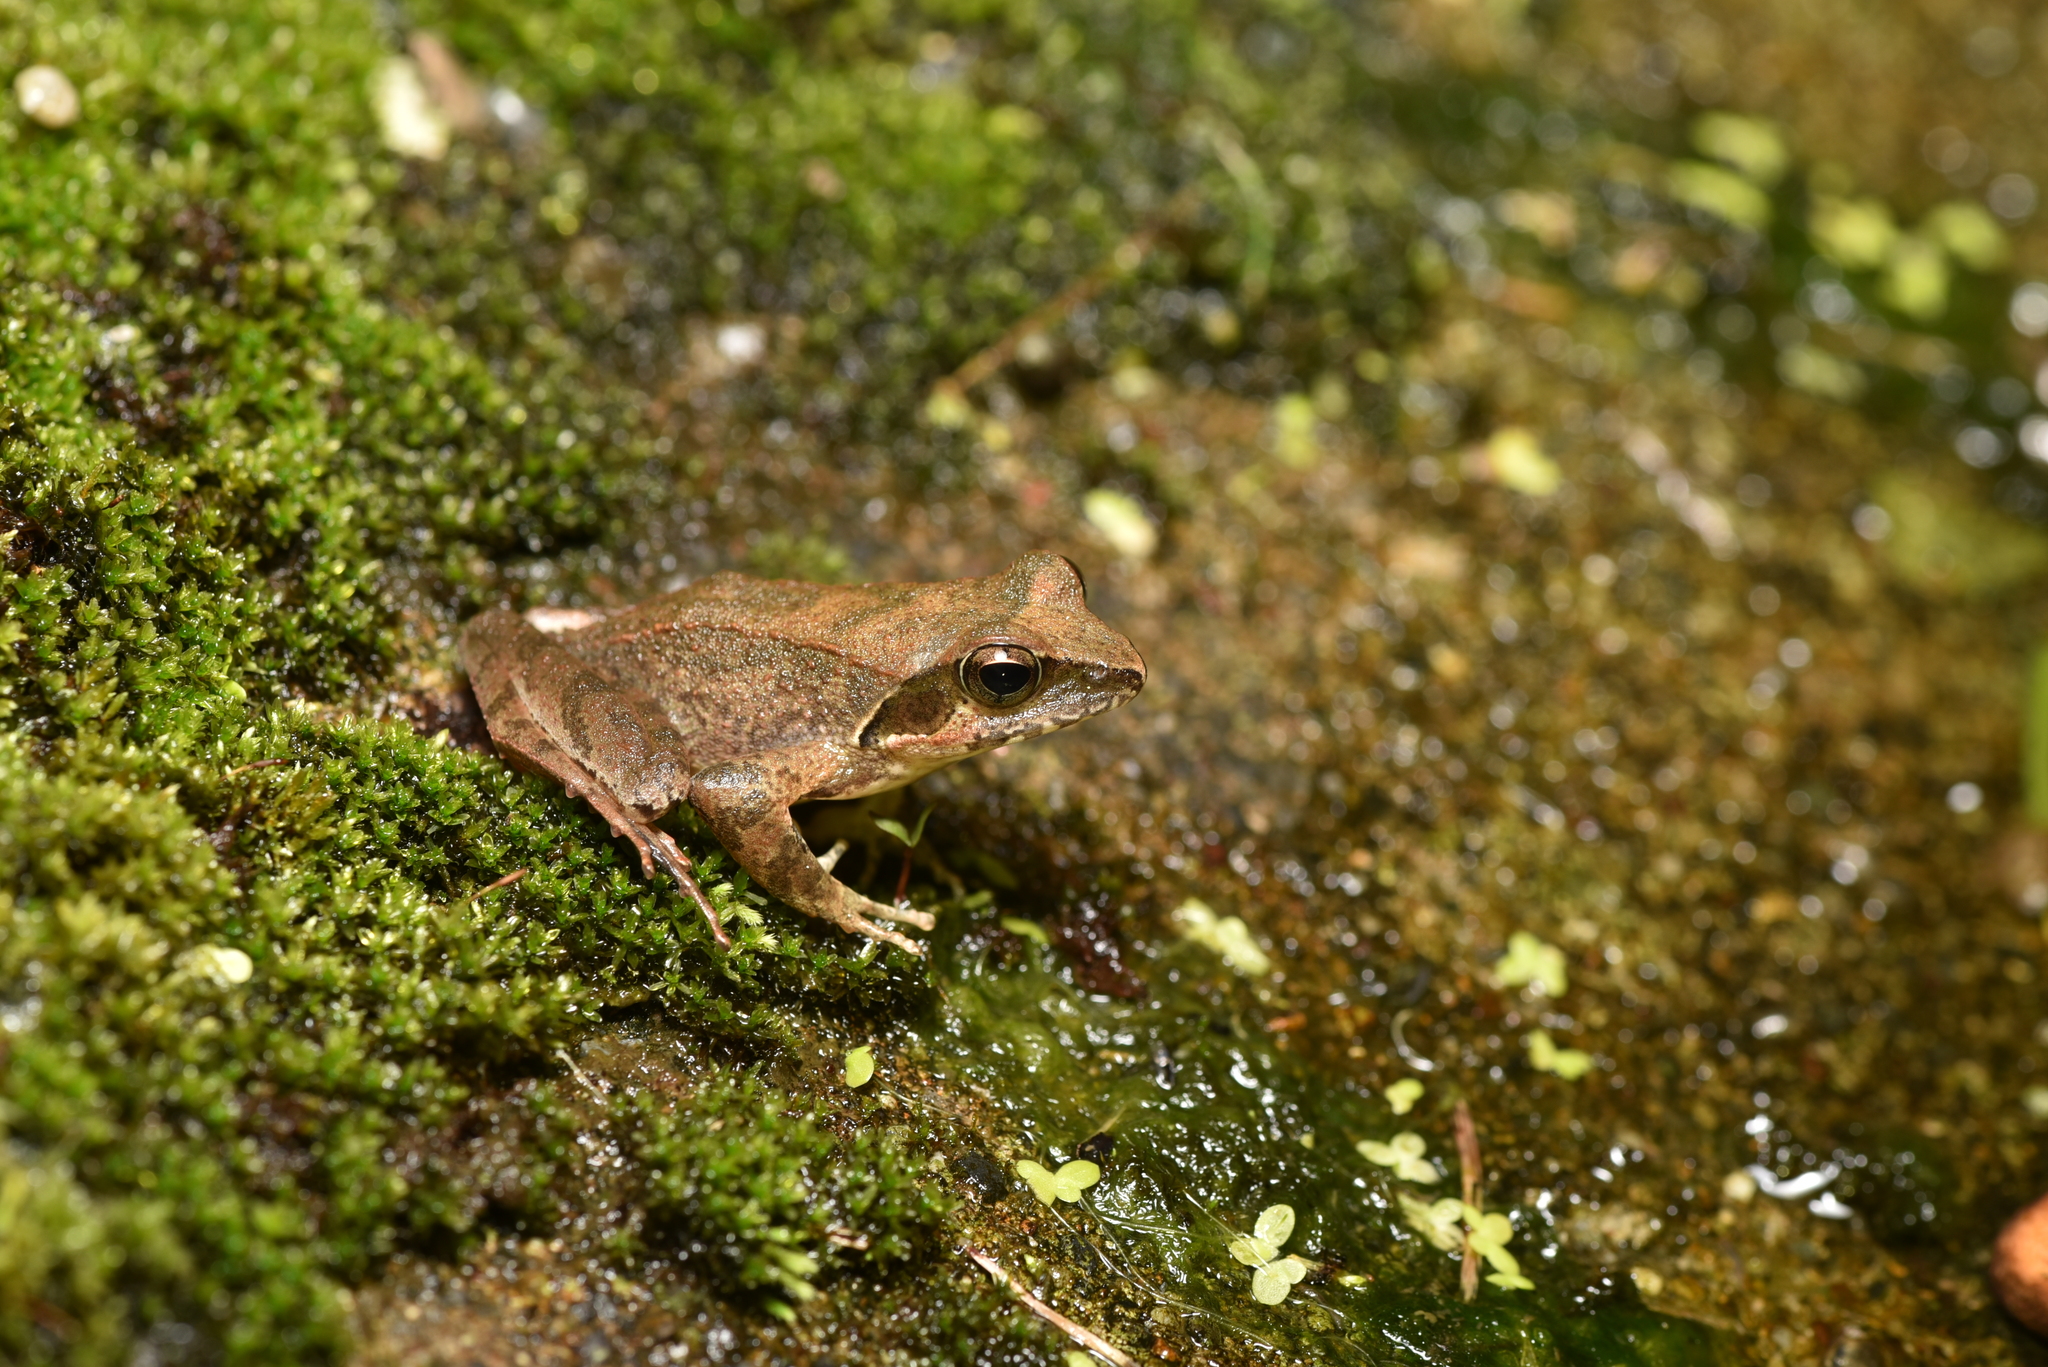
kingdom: Animalia
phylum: Chordata
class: Amphibia
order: Anura
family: Ranidae
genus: Rana
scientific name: Rana sauteri
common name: Kanshirei village frog
